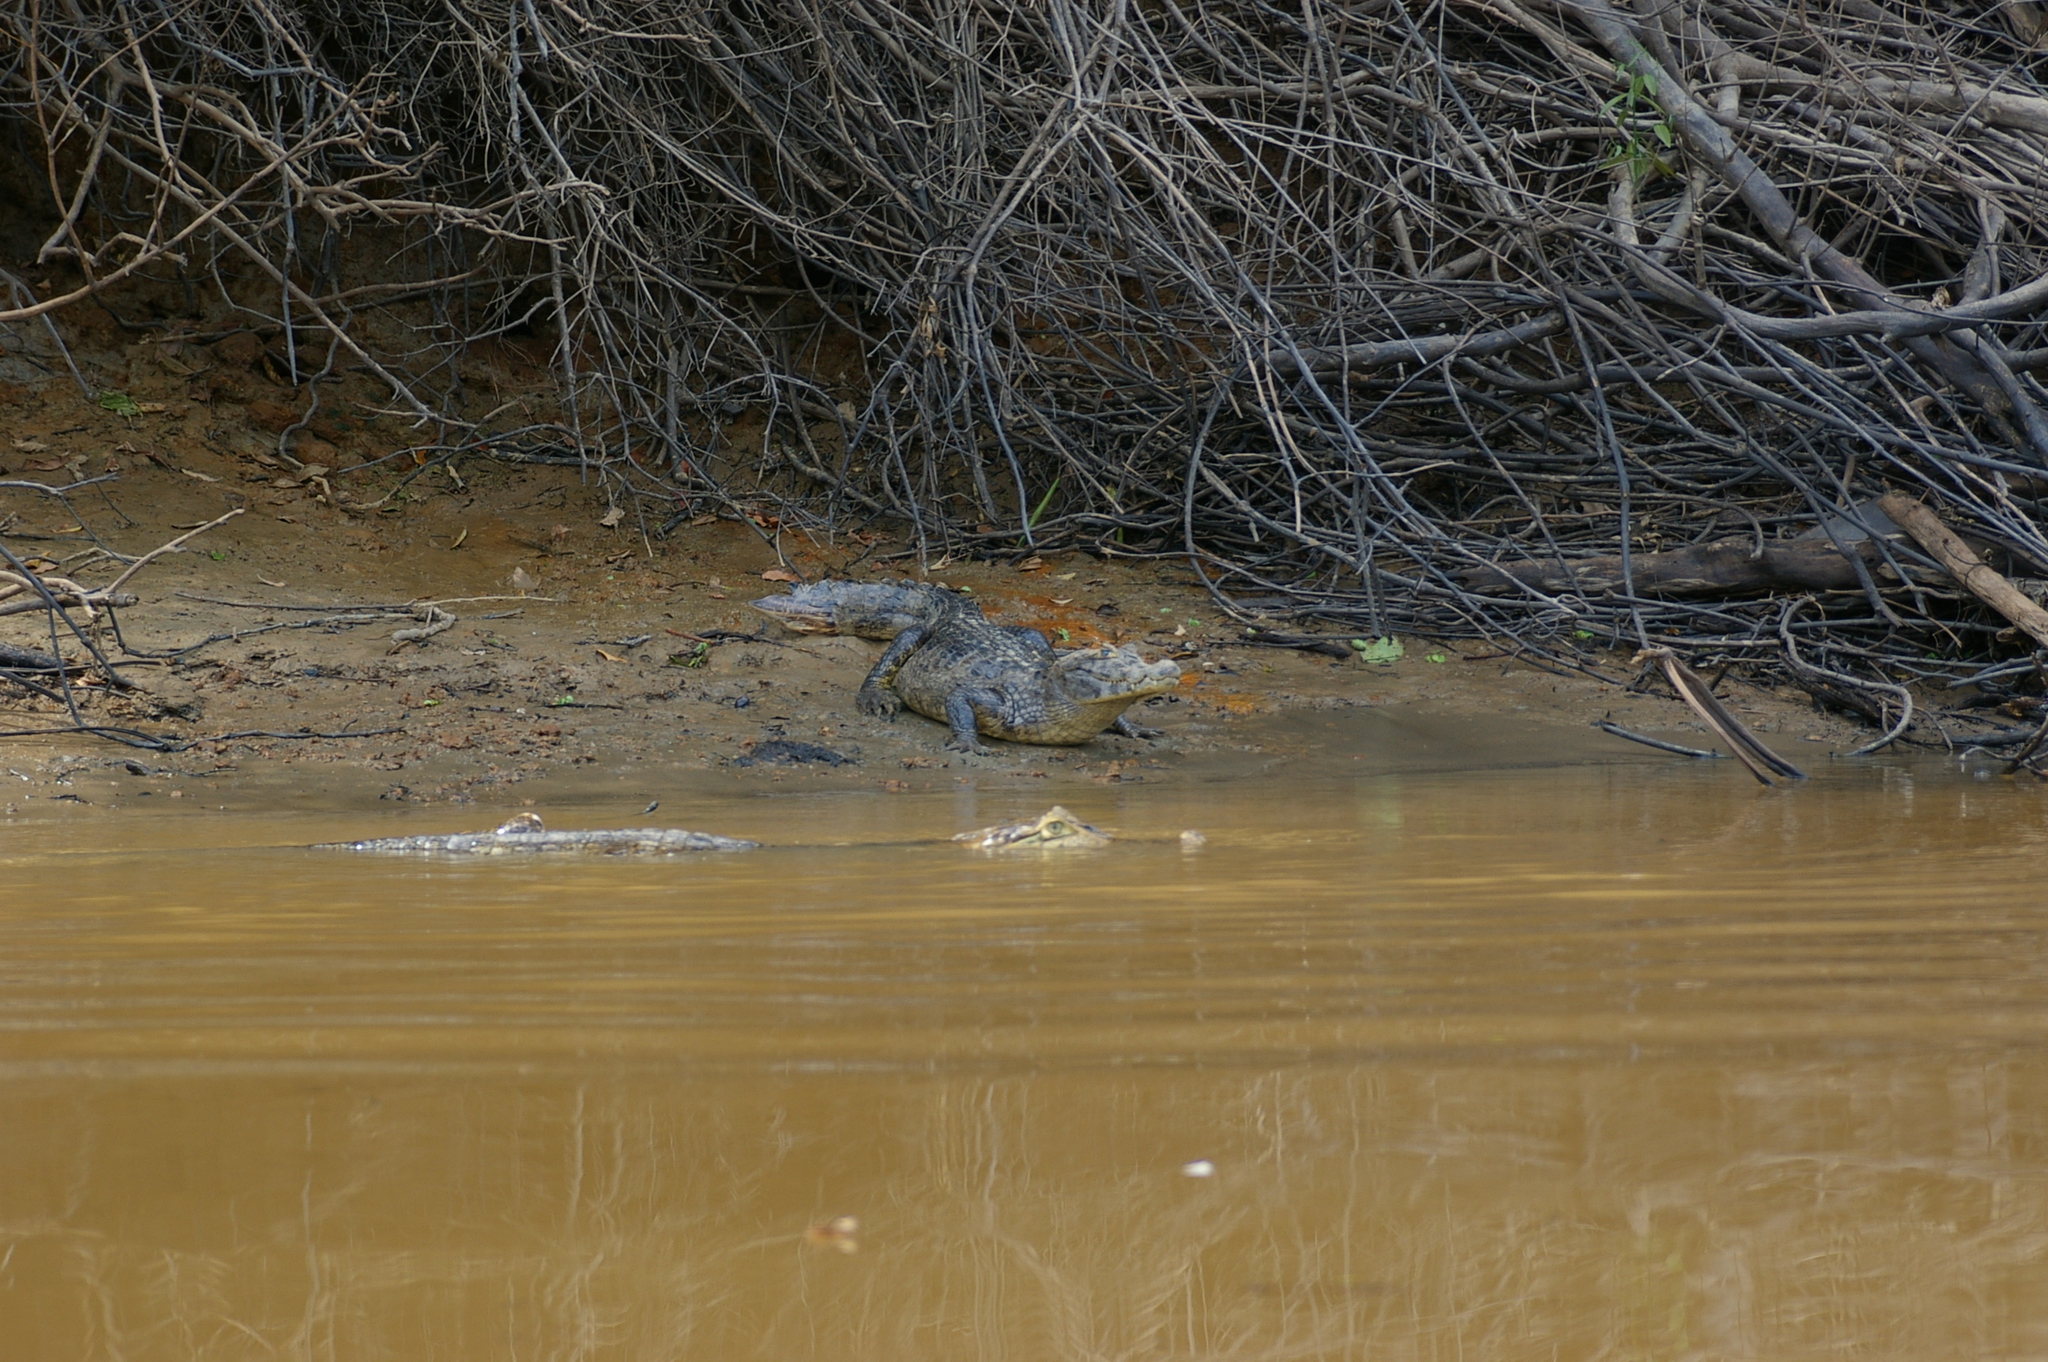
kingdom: Animalia
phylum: Chordata
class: Crocodylia
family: Alligatoridae
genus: Caiman
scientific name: Caiman yacare
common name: Yacare caiman
